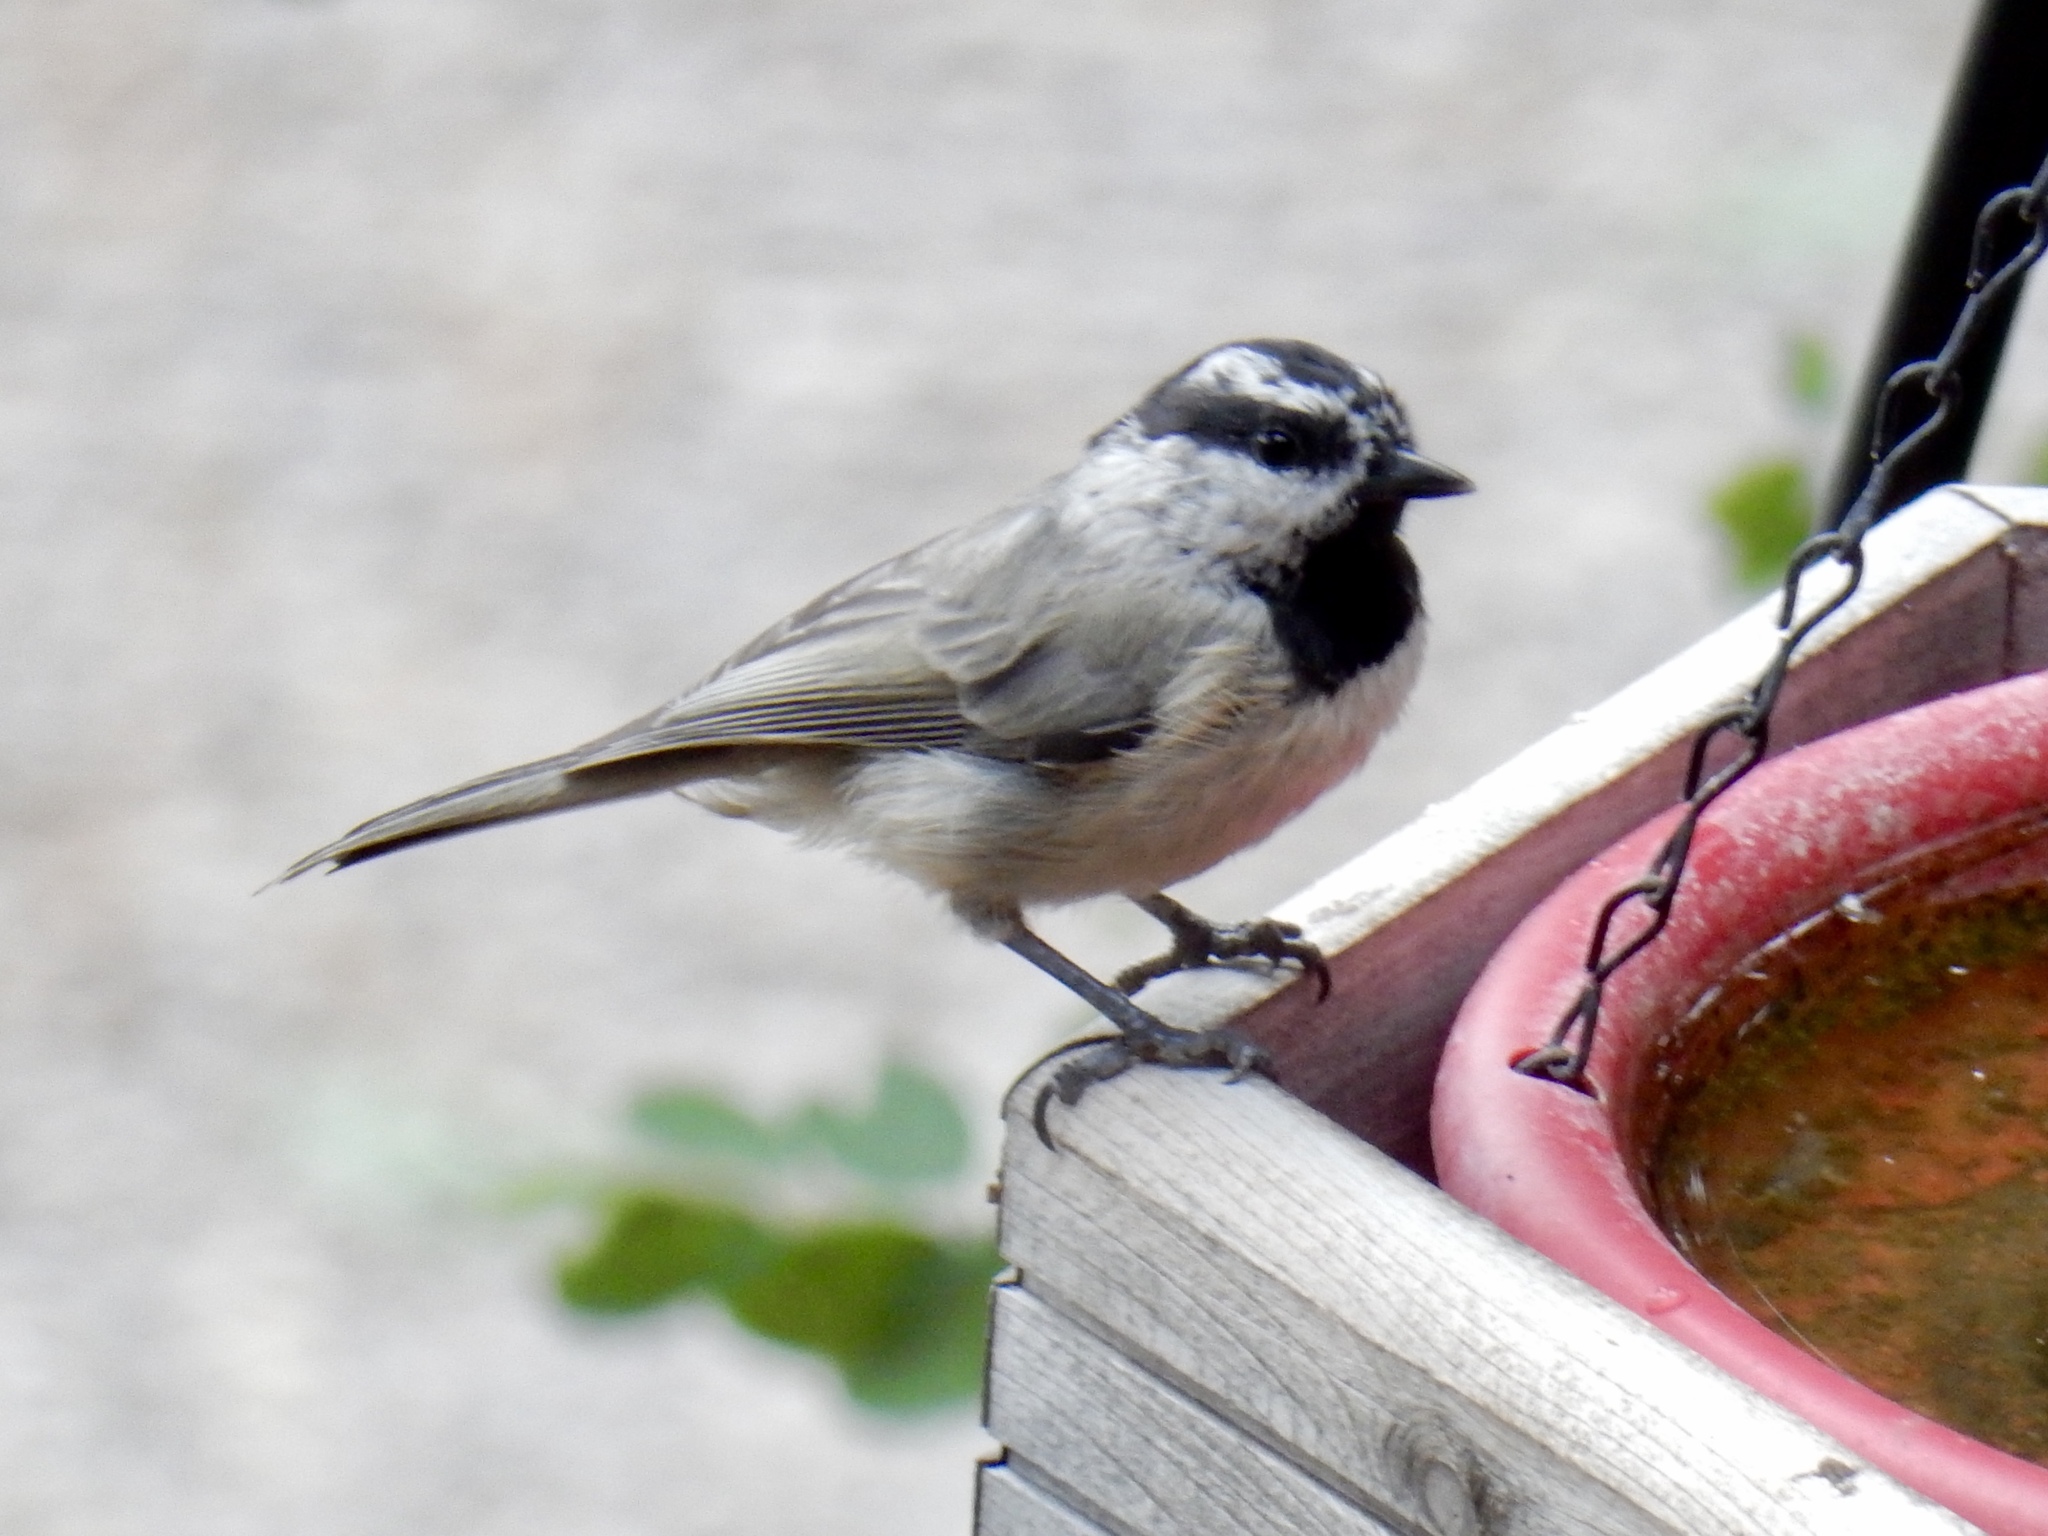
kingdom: Animalia
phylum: Chordata
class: Aves
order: Passeriformes
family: Paridae
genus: Poecile
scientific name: Poecile gambeli
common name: Mountain chickadee
